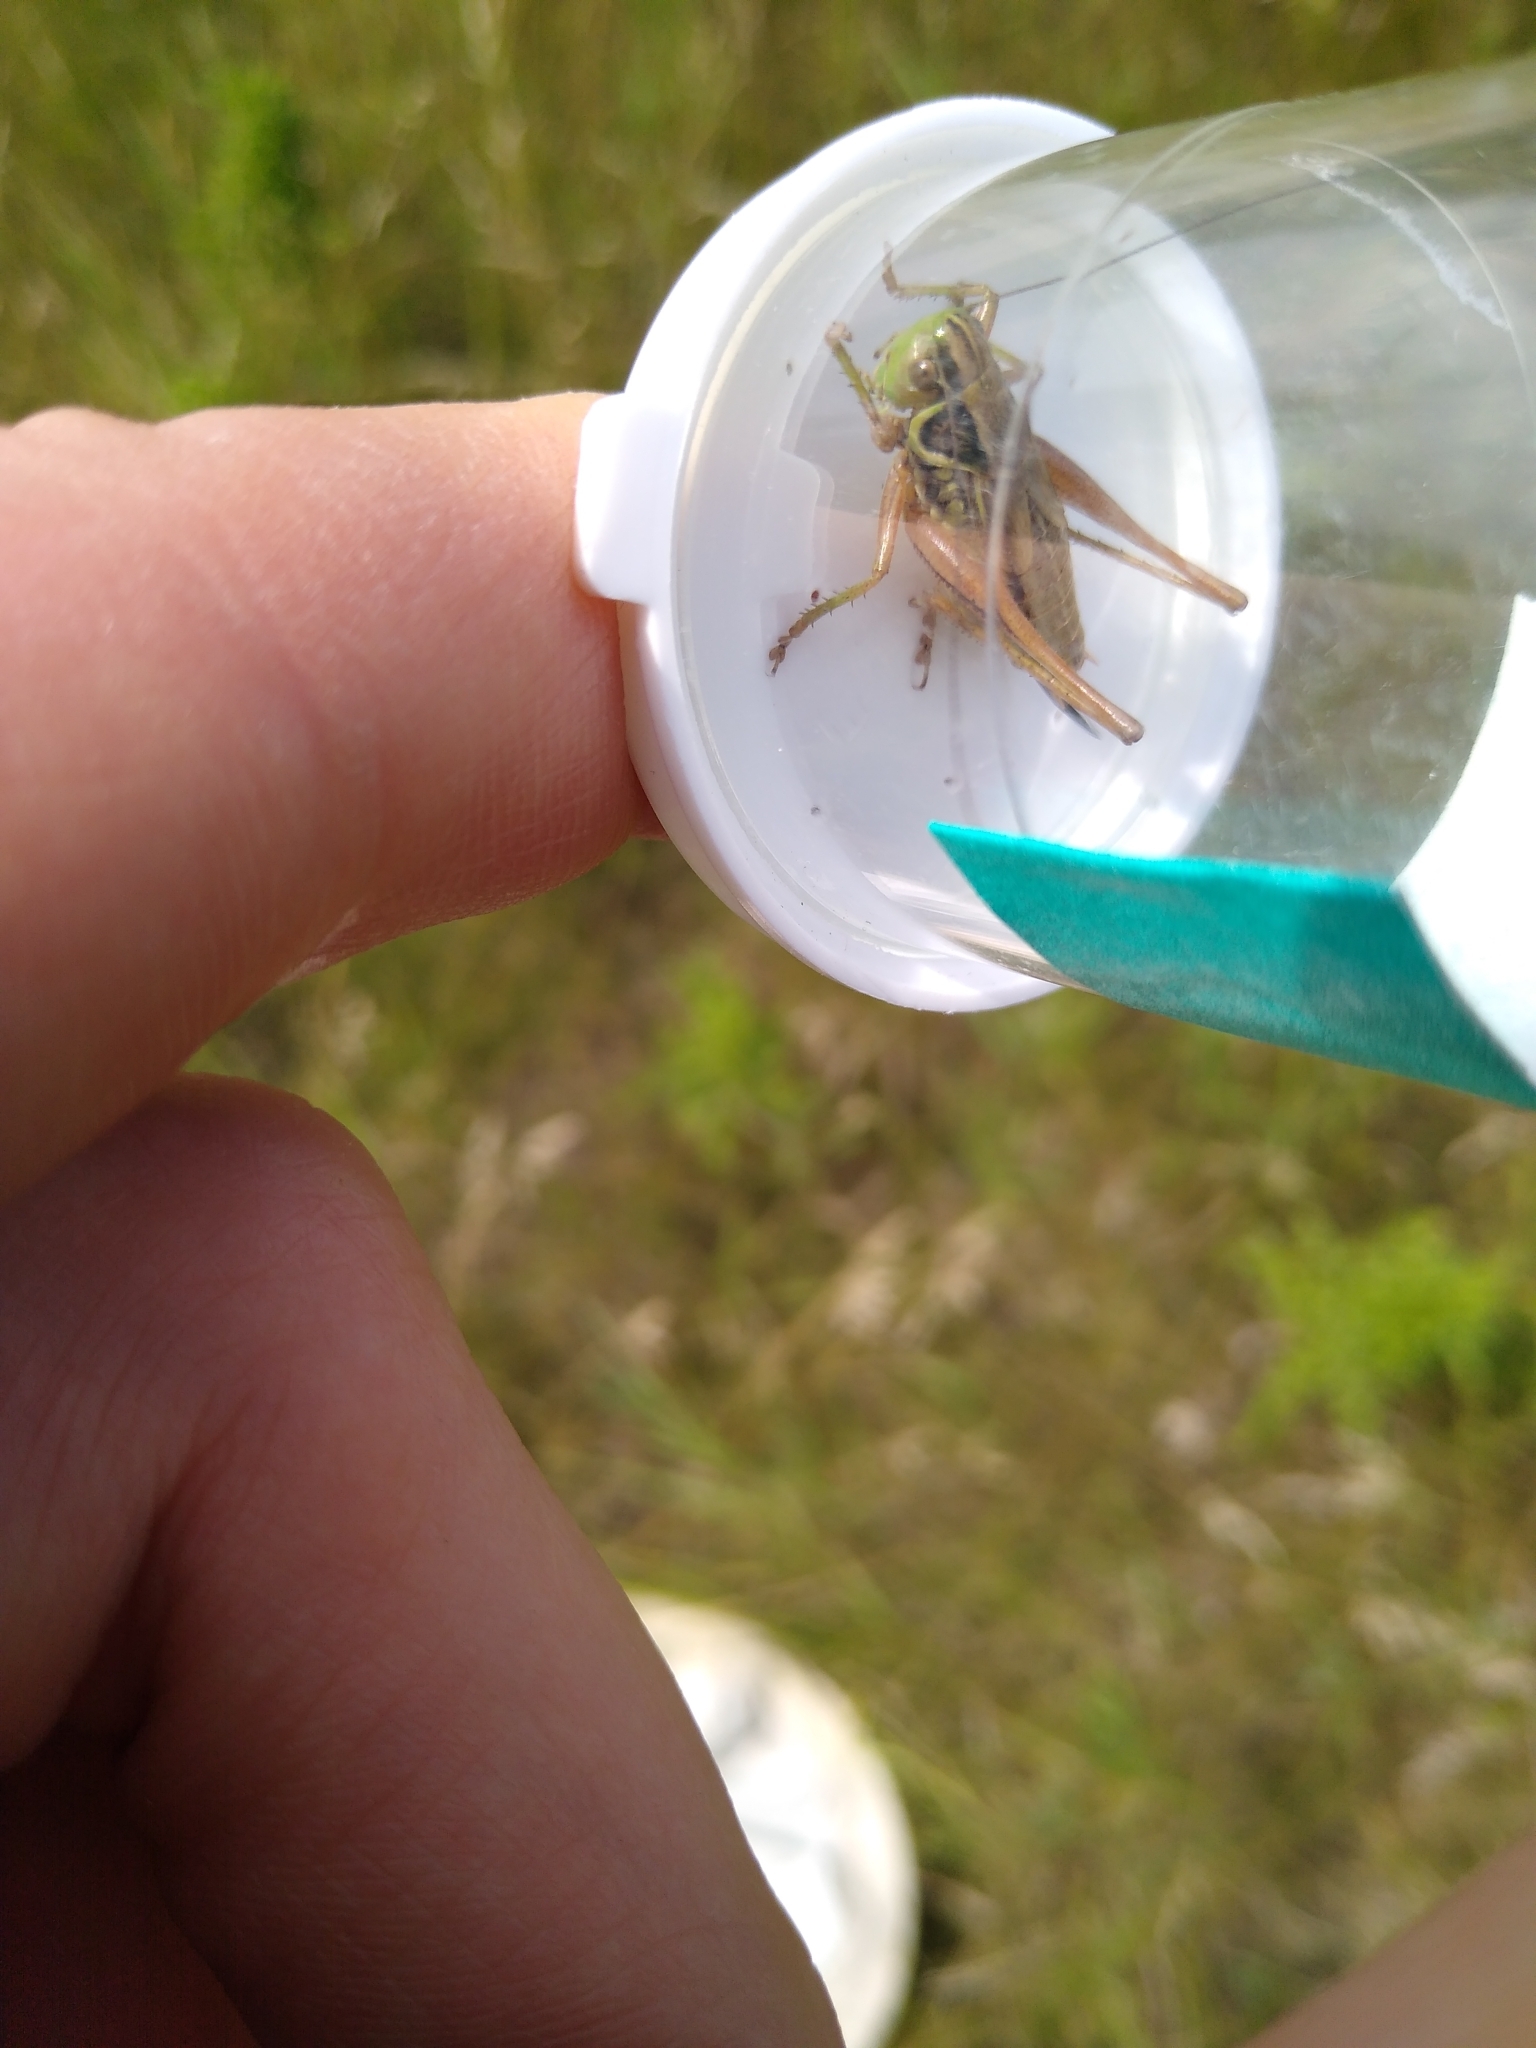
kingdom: Animalia
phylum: Arthropoda
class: Insecta
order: Orthoptera
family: Tettigoniidae
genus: Roeseliana
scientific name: Roeseliana roeselii
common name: Roesel's bush cricket
